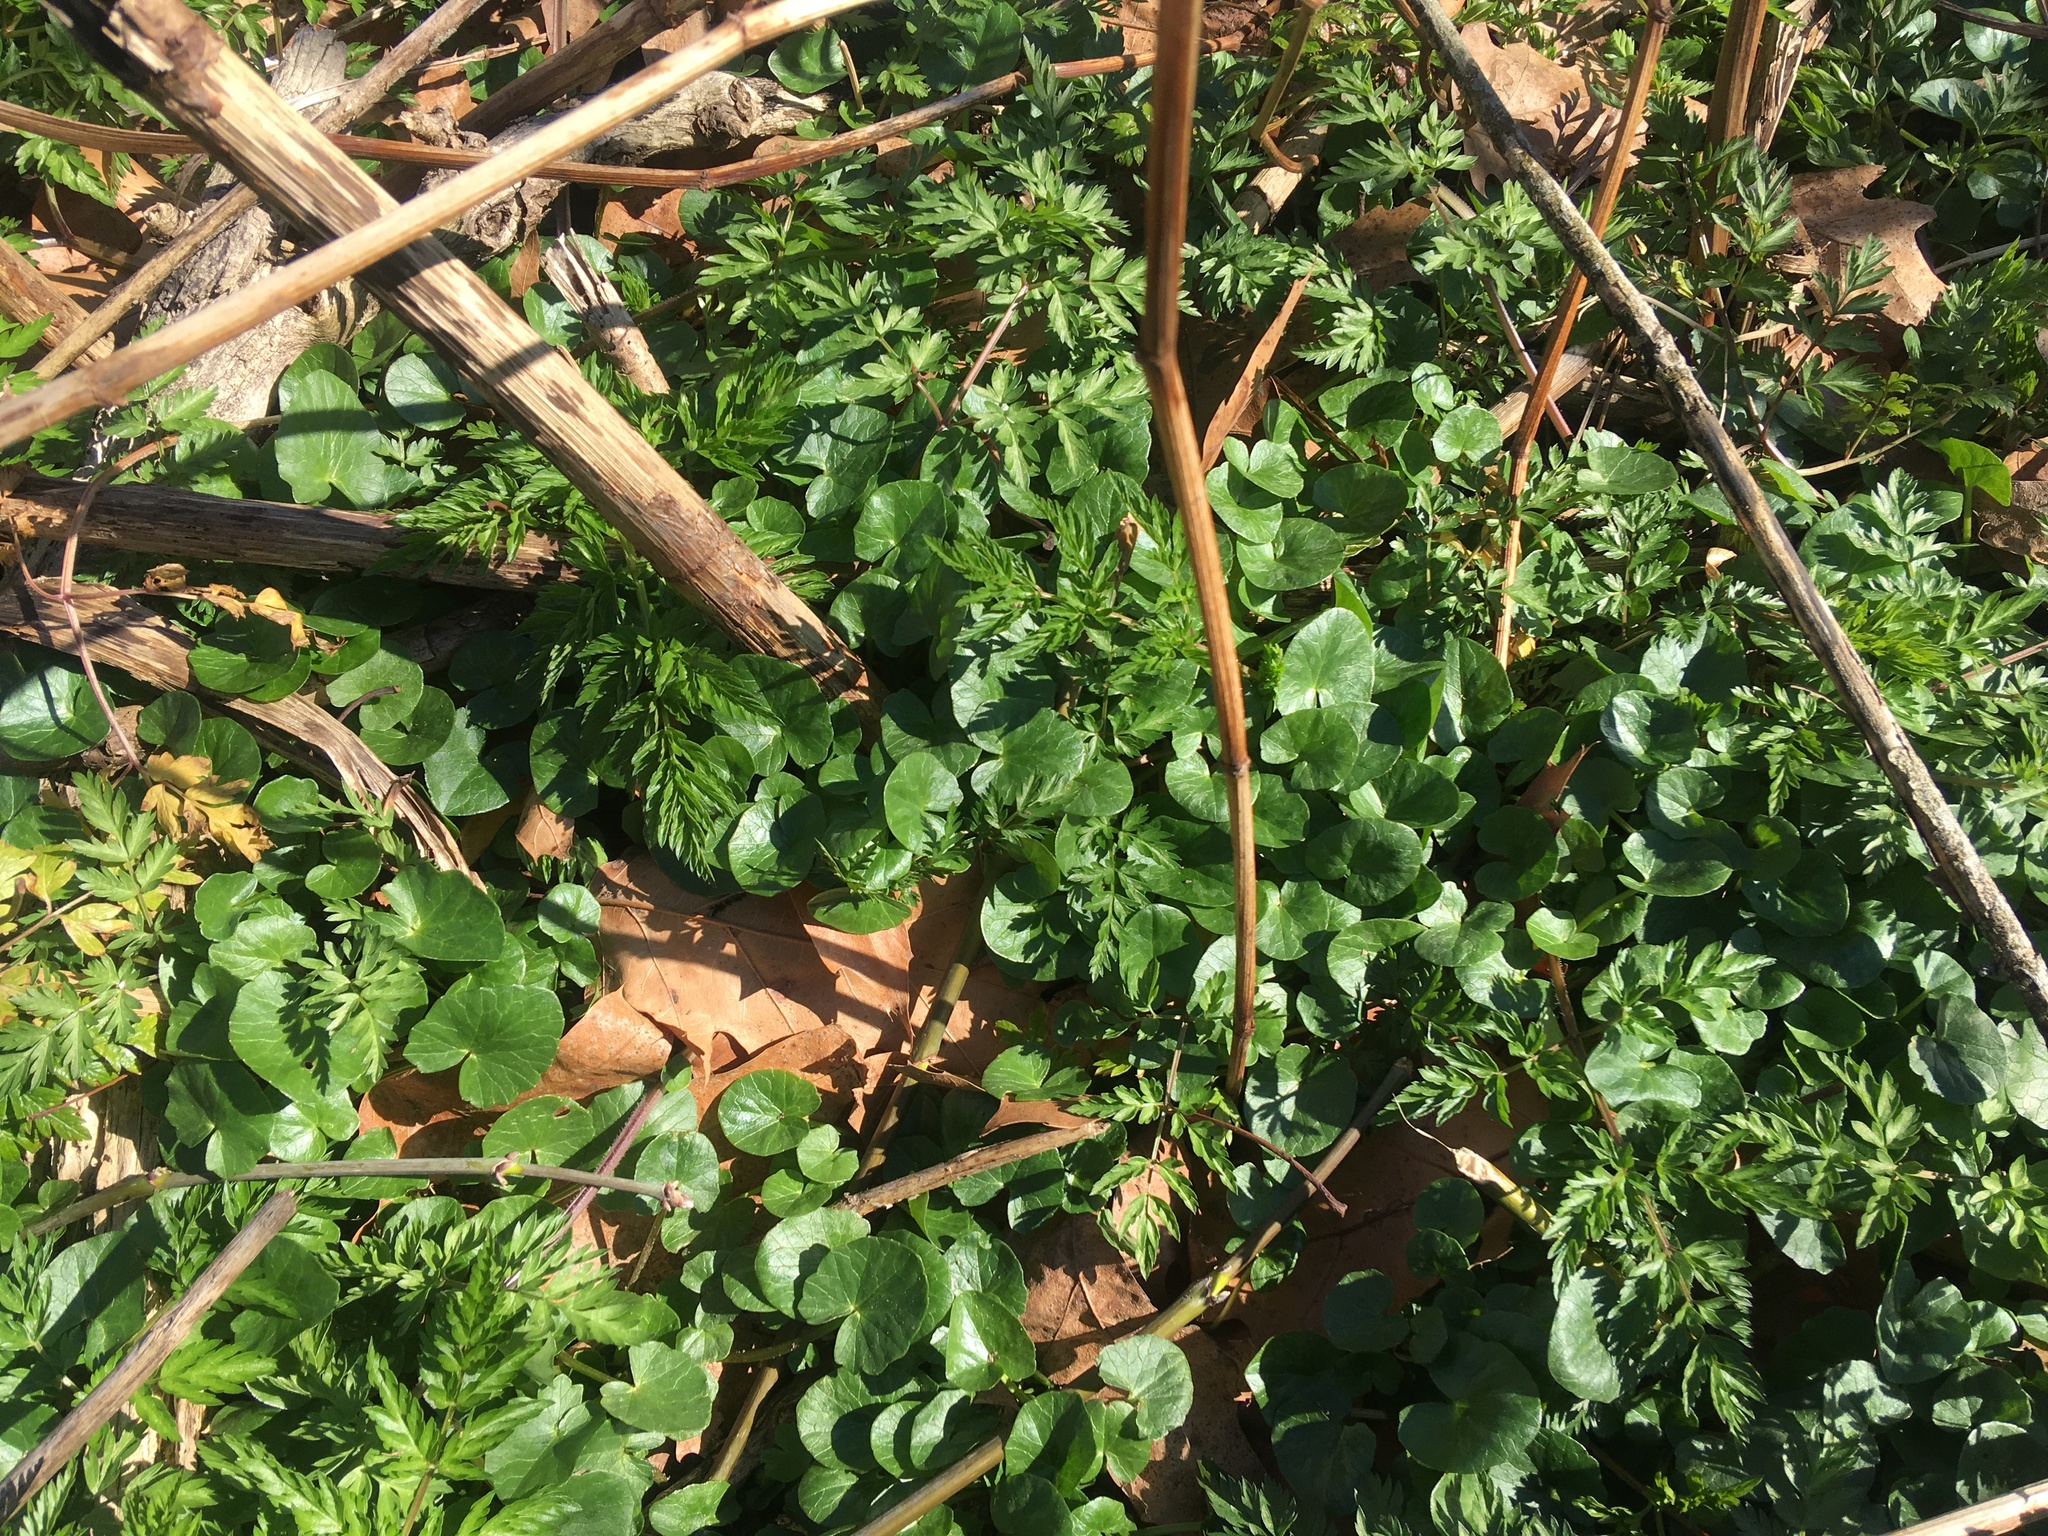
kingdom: Plantae
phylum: Tracheophyta
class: Magnoliopsida
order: Ranunculales
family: Ranunculaceae
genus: Ficaria
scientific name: Ficaria verna
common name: Lesser celandine
